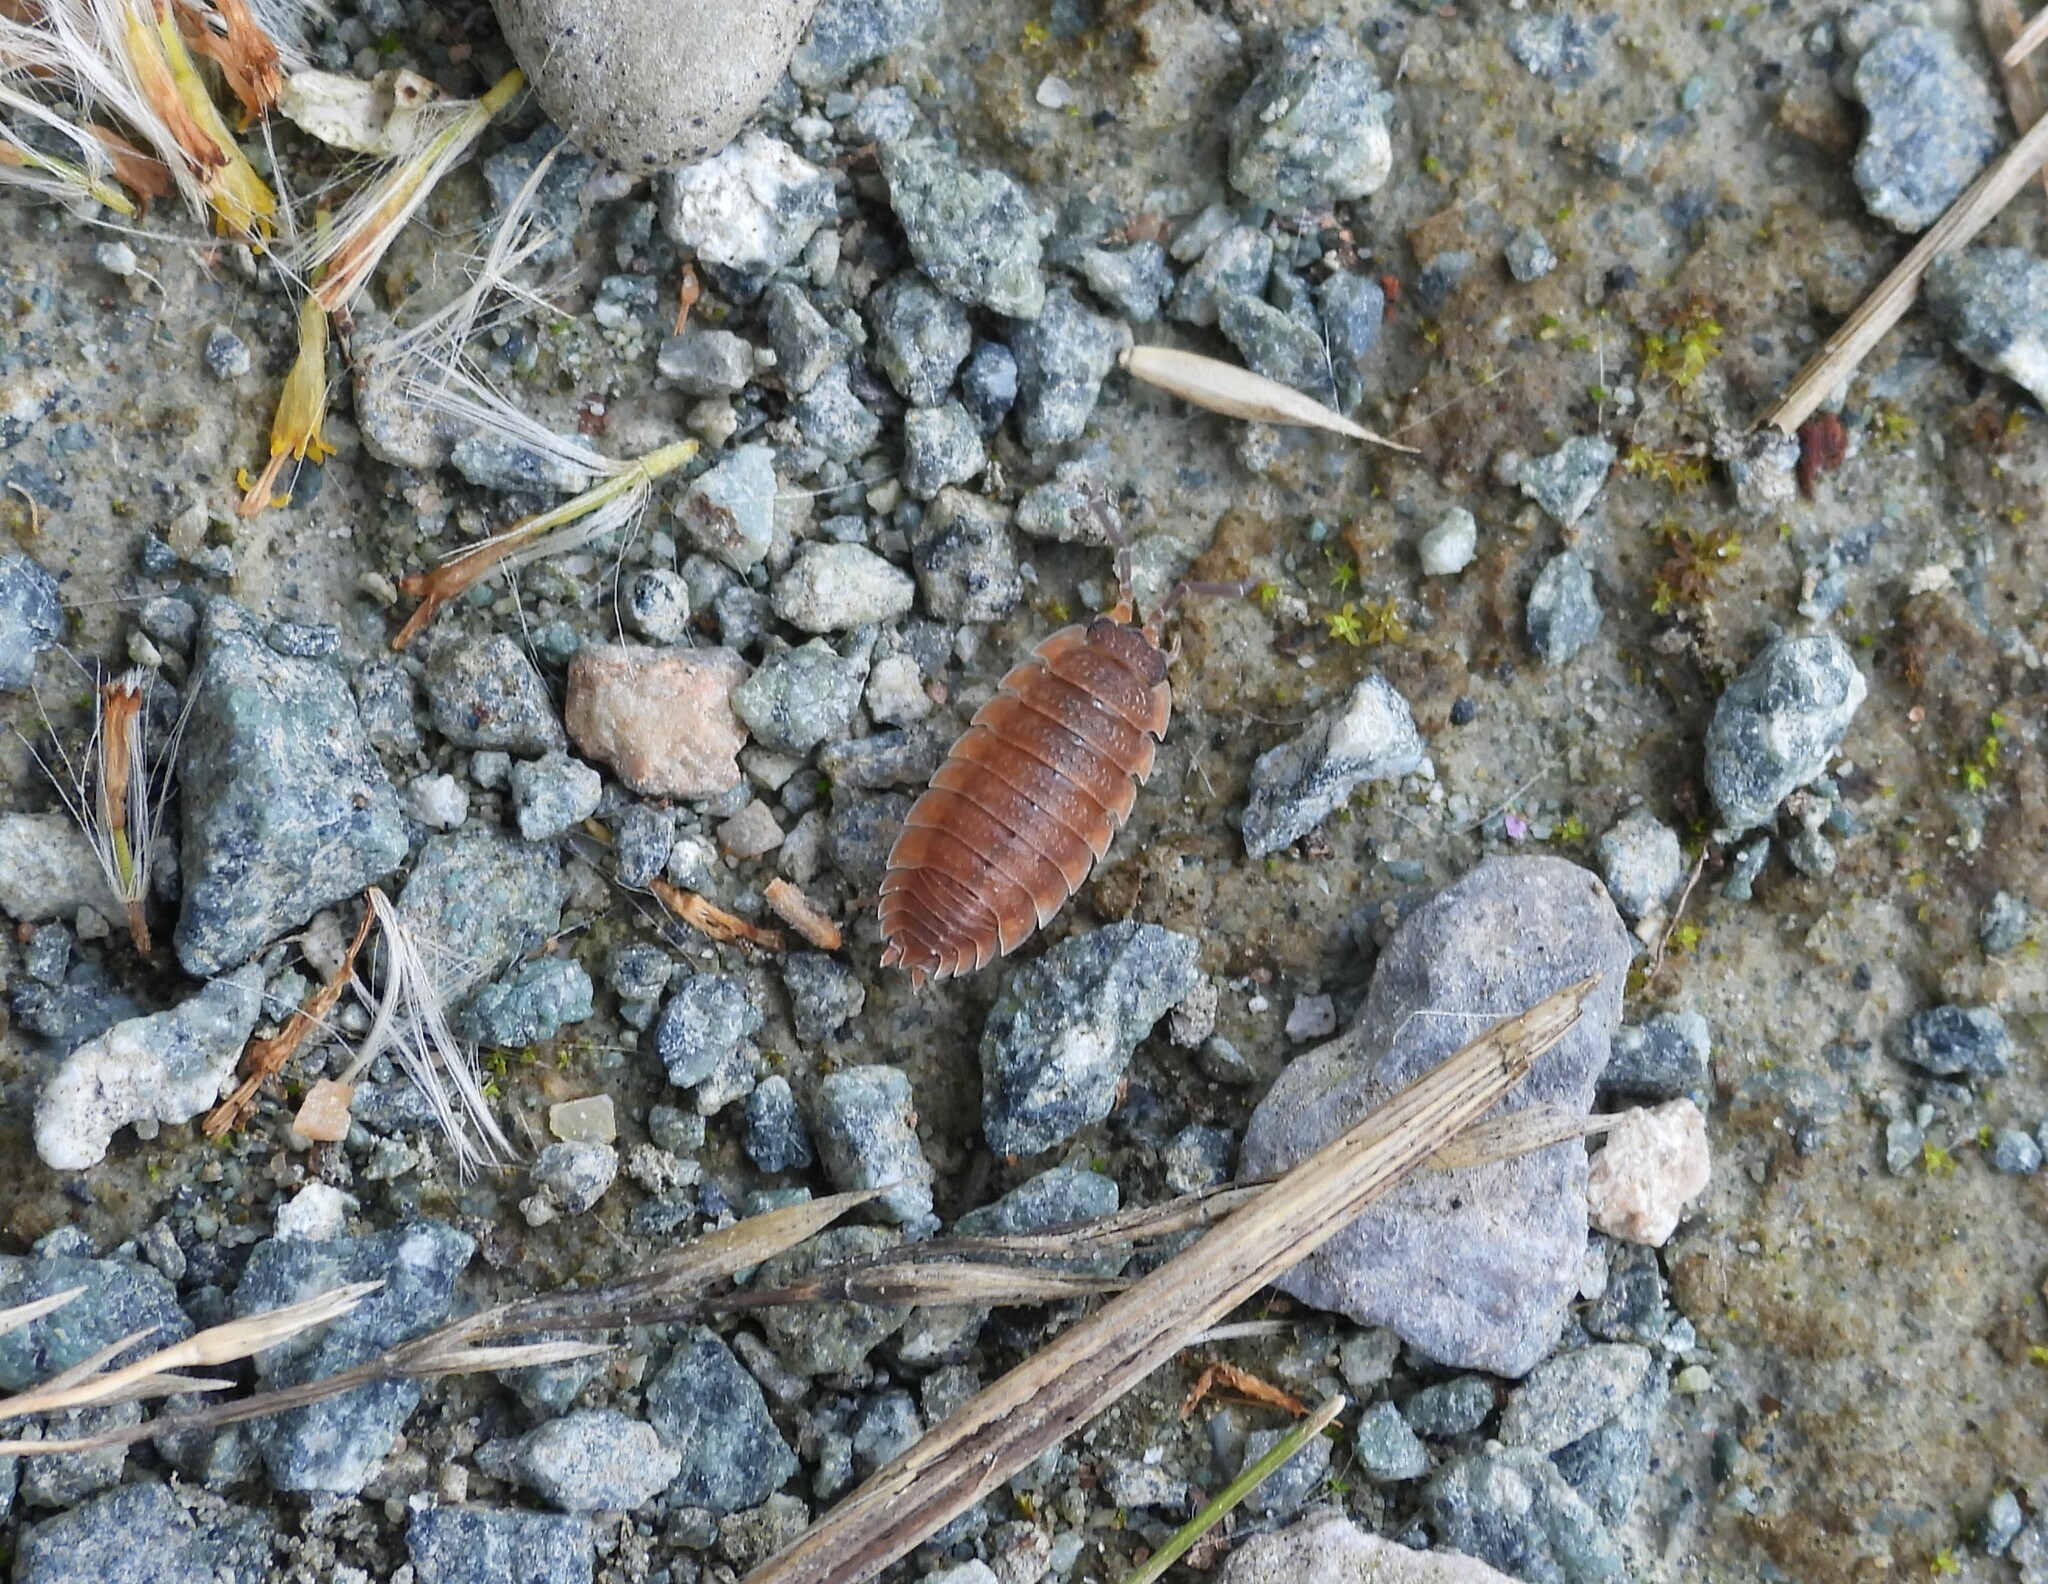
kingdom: Animalia
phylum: Arthropoda
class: Malacostraca
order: Isopoda
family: Porcellionidae
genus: Porcellio
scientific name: Porcellio scaber
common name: Common rough woodlouse
